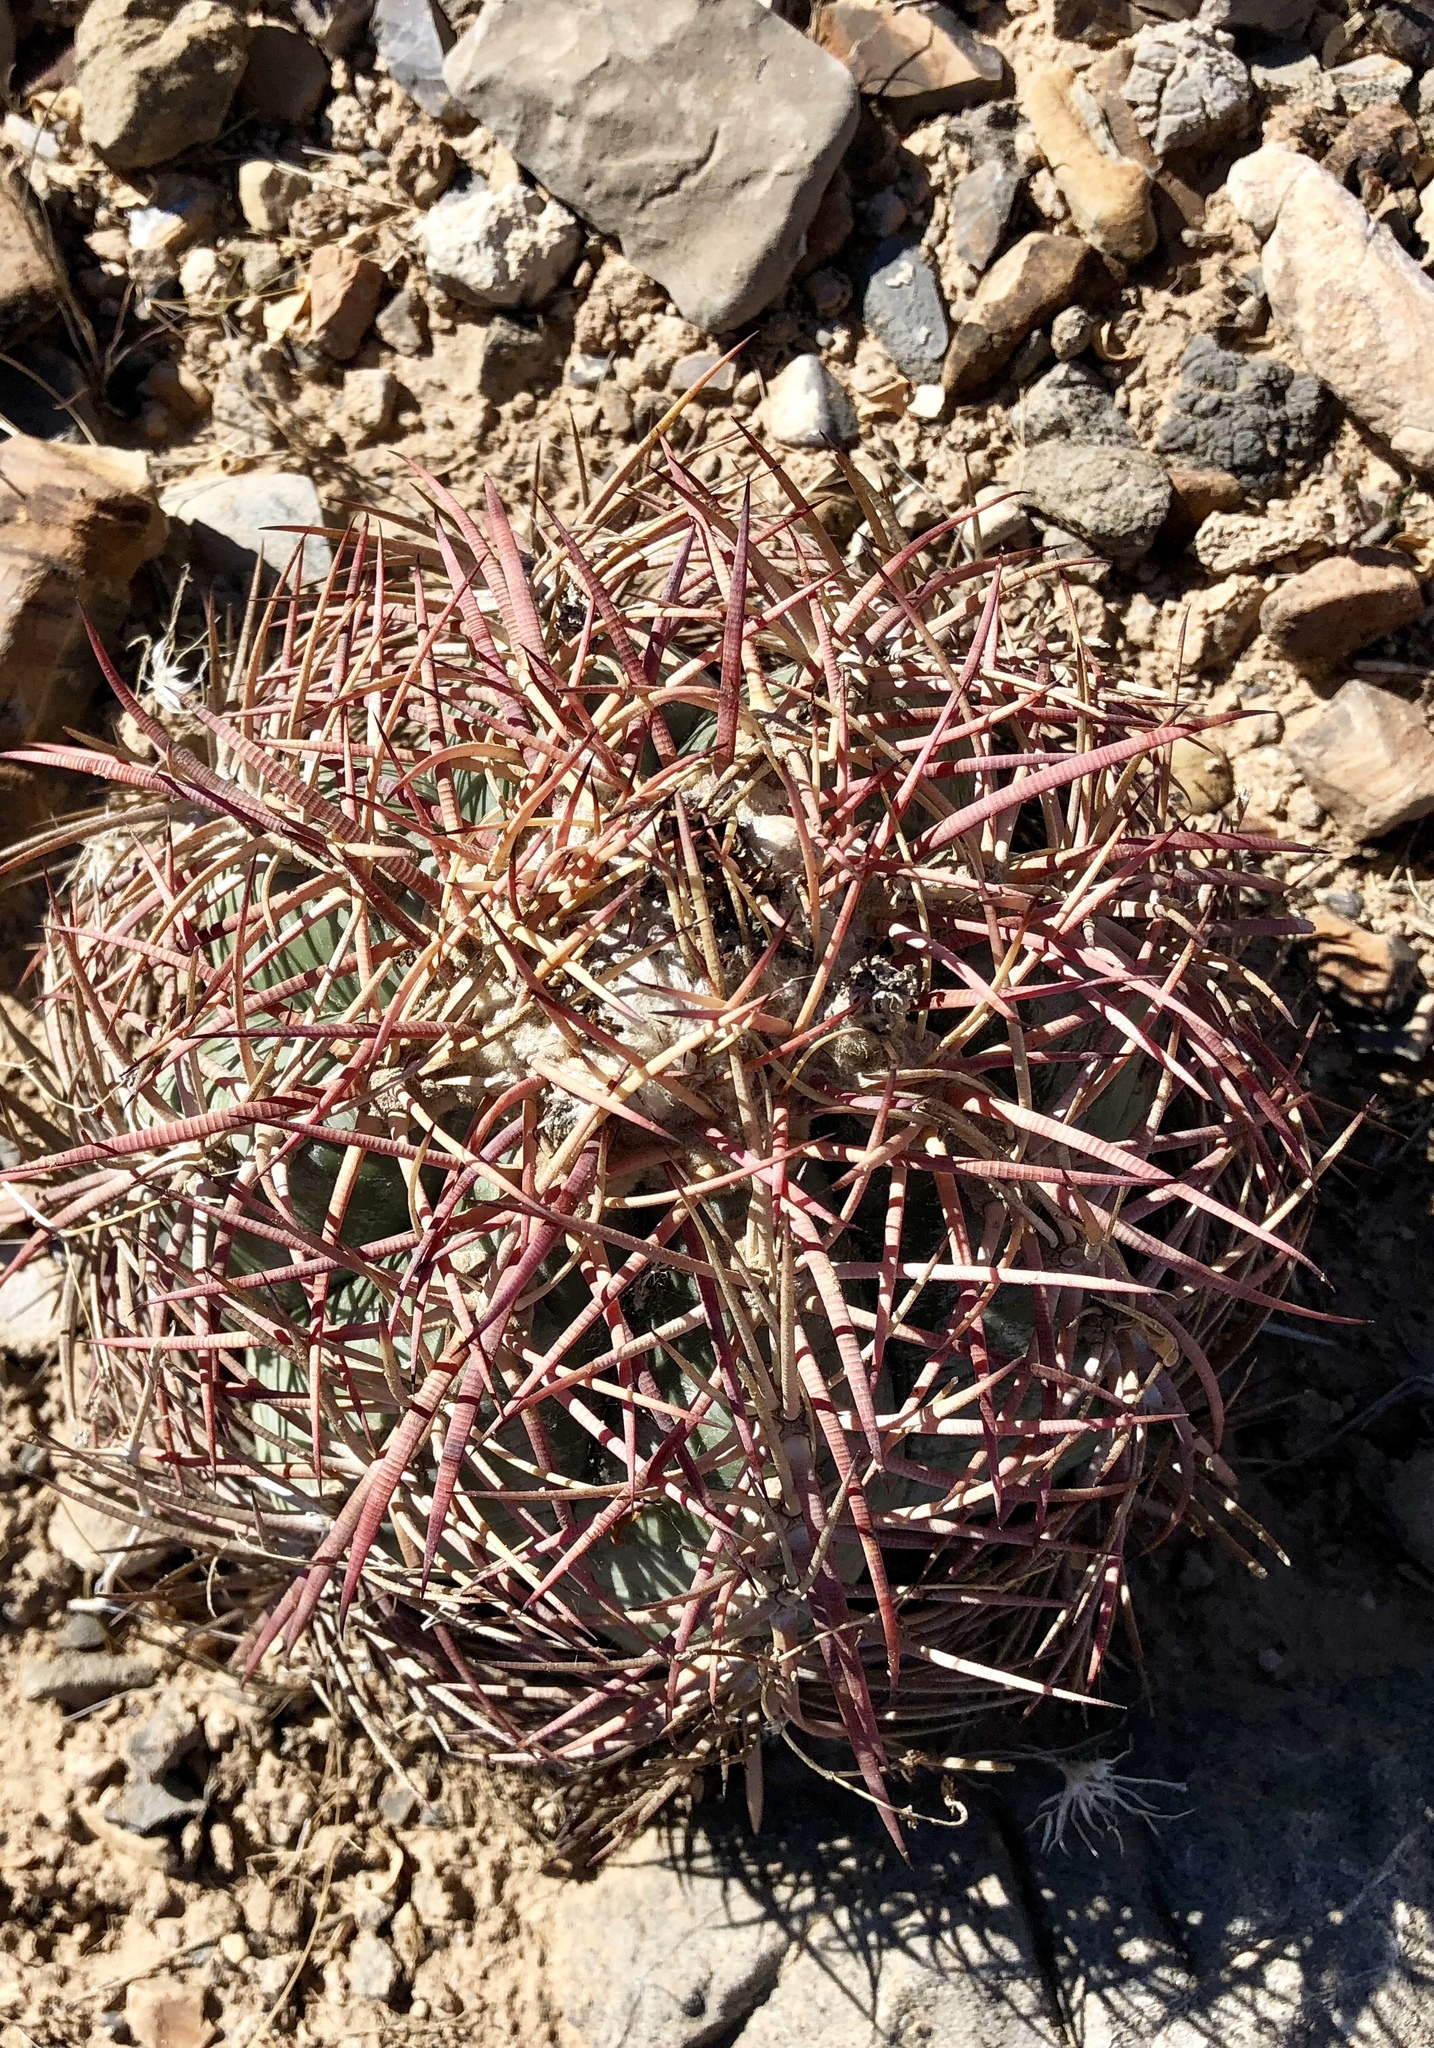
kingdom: Plantae
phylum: Tracheophyta
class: Magnoliopsida
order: Caryophyllales
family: Cactaceae
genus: Echinocactus
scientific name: Echinocactus horizonthalonius
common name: Devilshead
